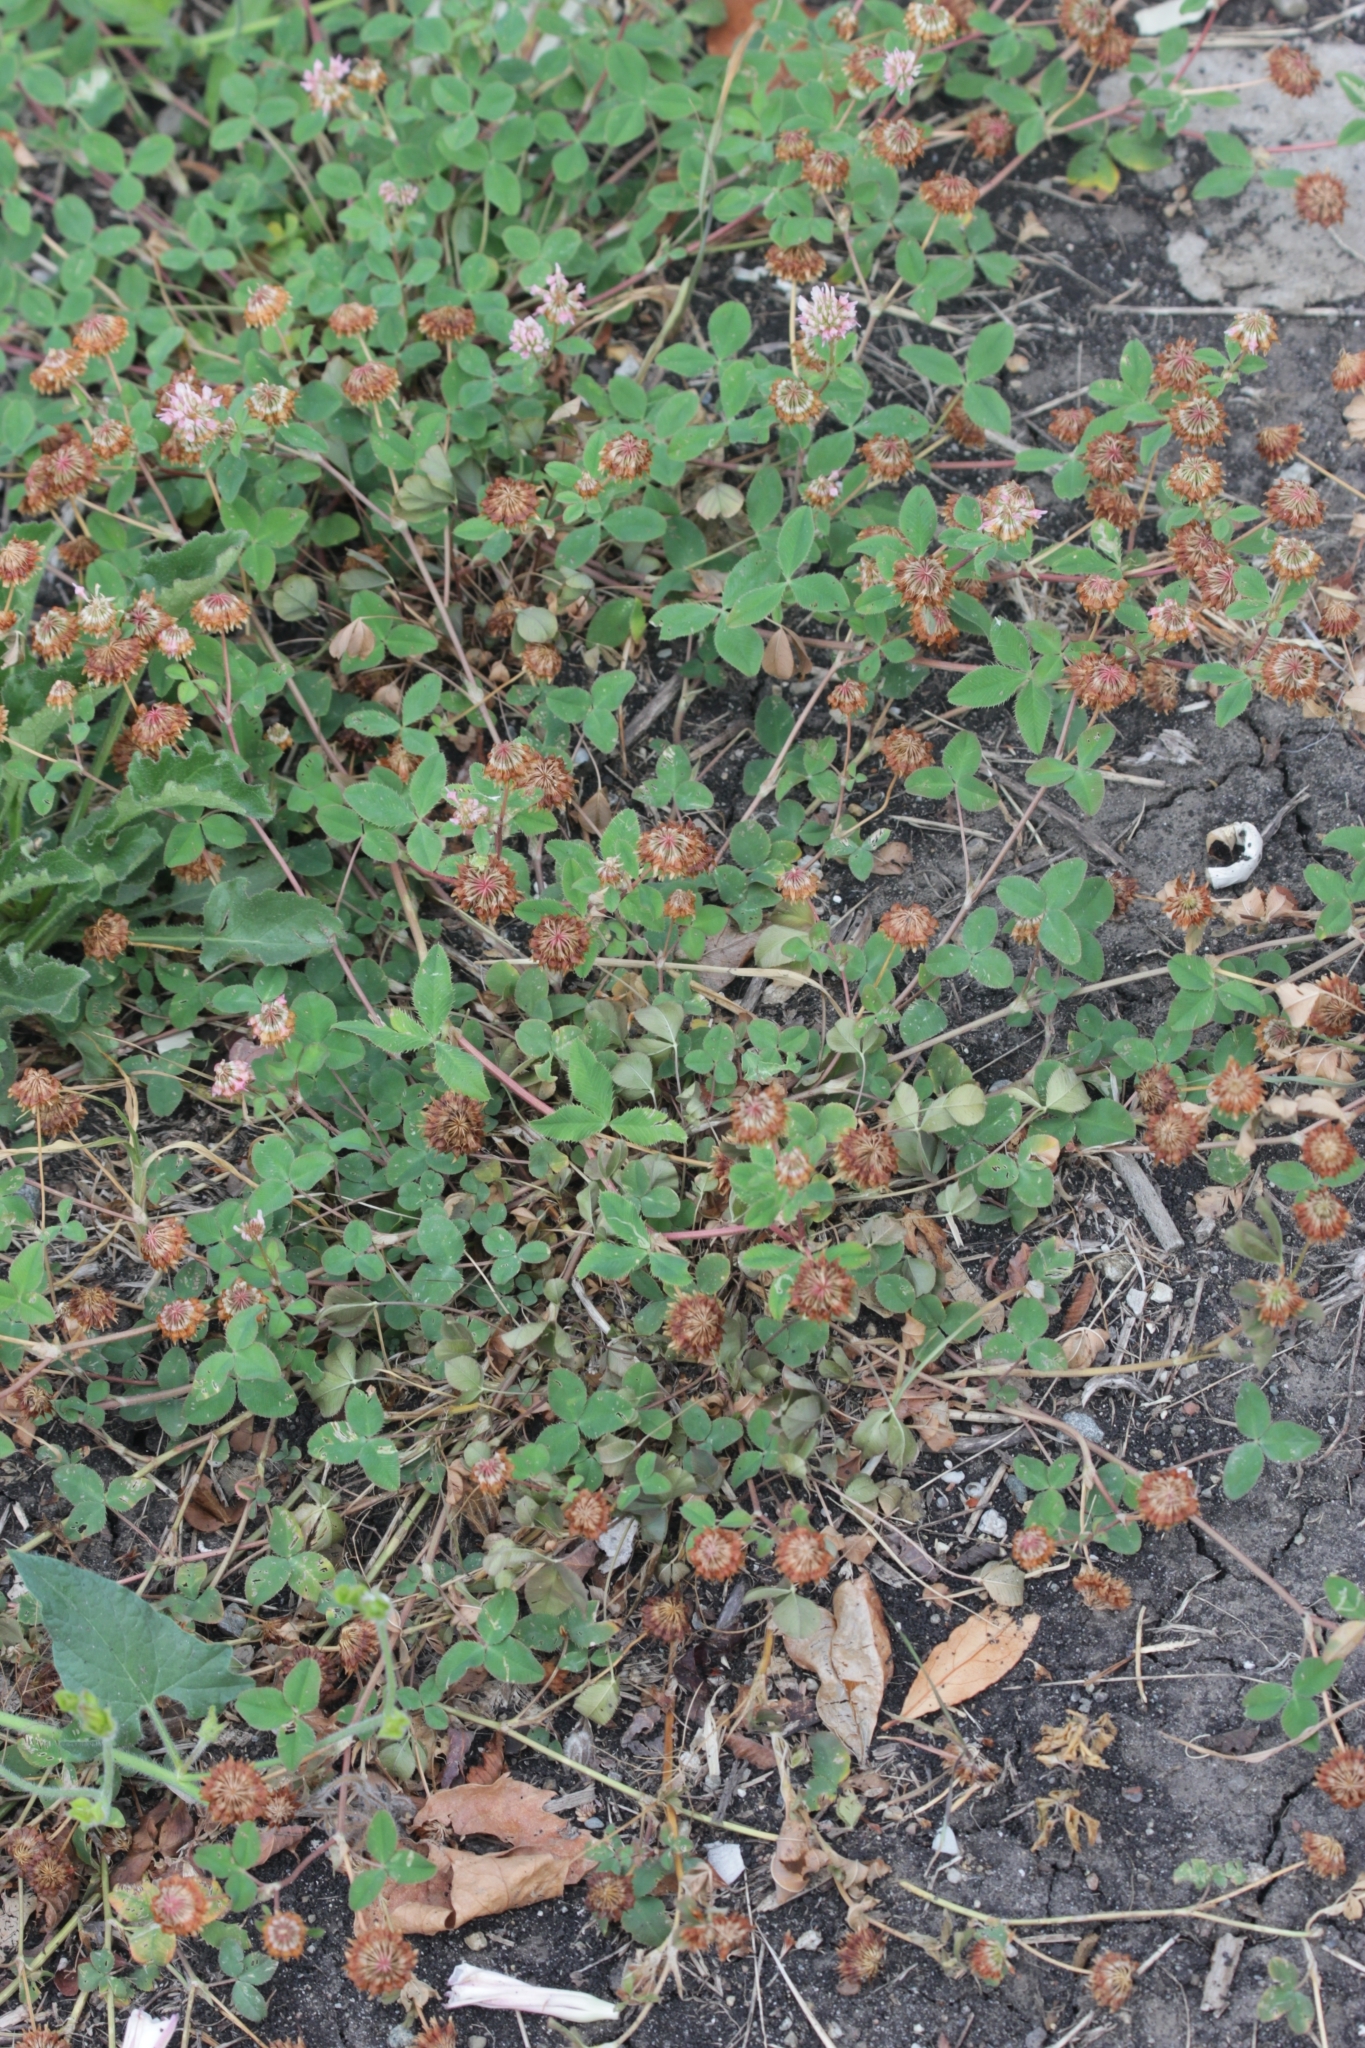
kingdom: Plantae
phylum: Tracheophyta
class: Magnoliopsida
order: Fabales
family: Fabaceae
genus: Trifolium
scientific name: Trifolium hybridum
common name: Alsike clover
